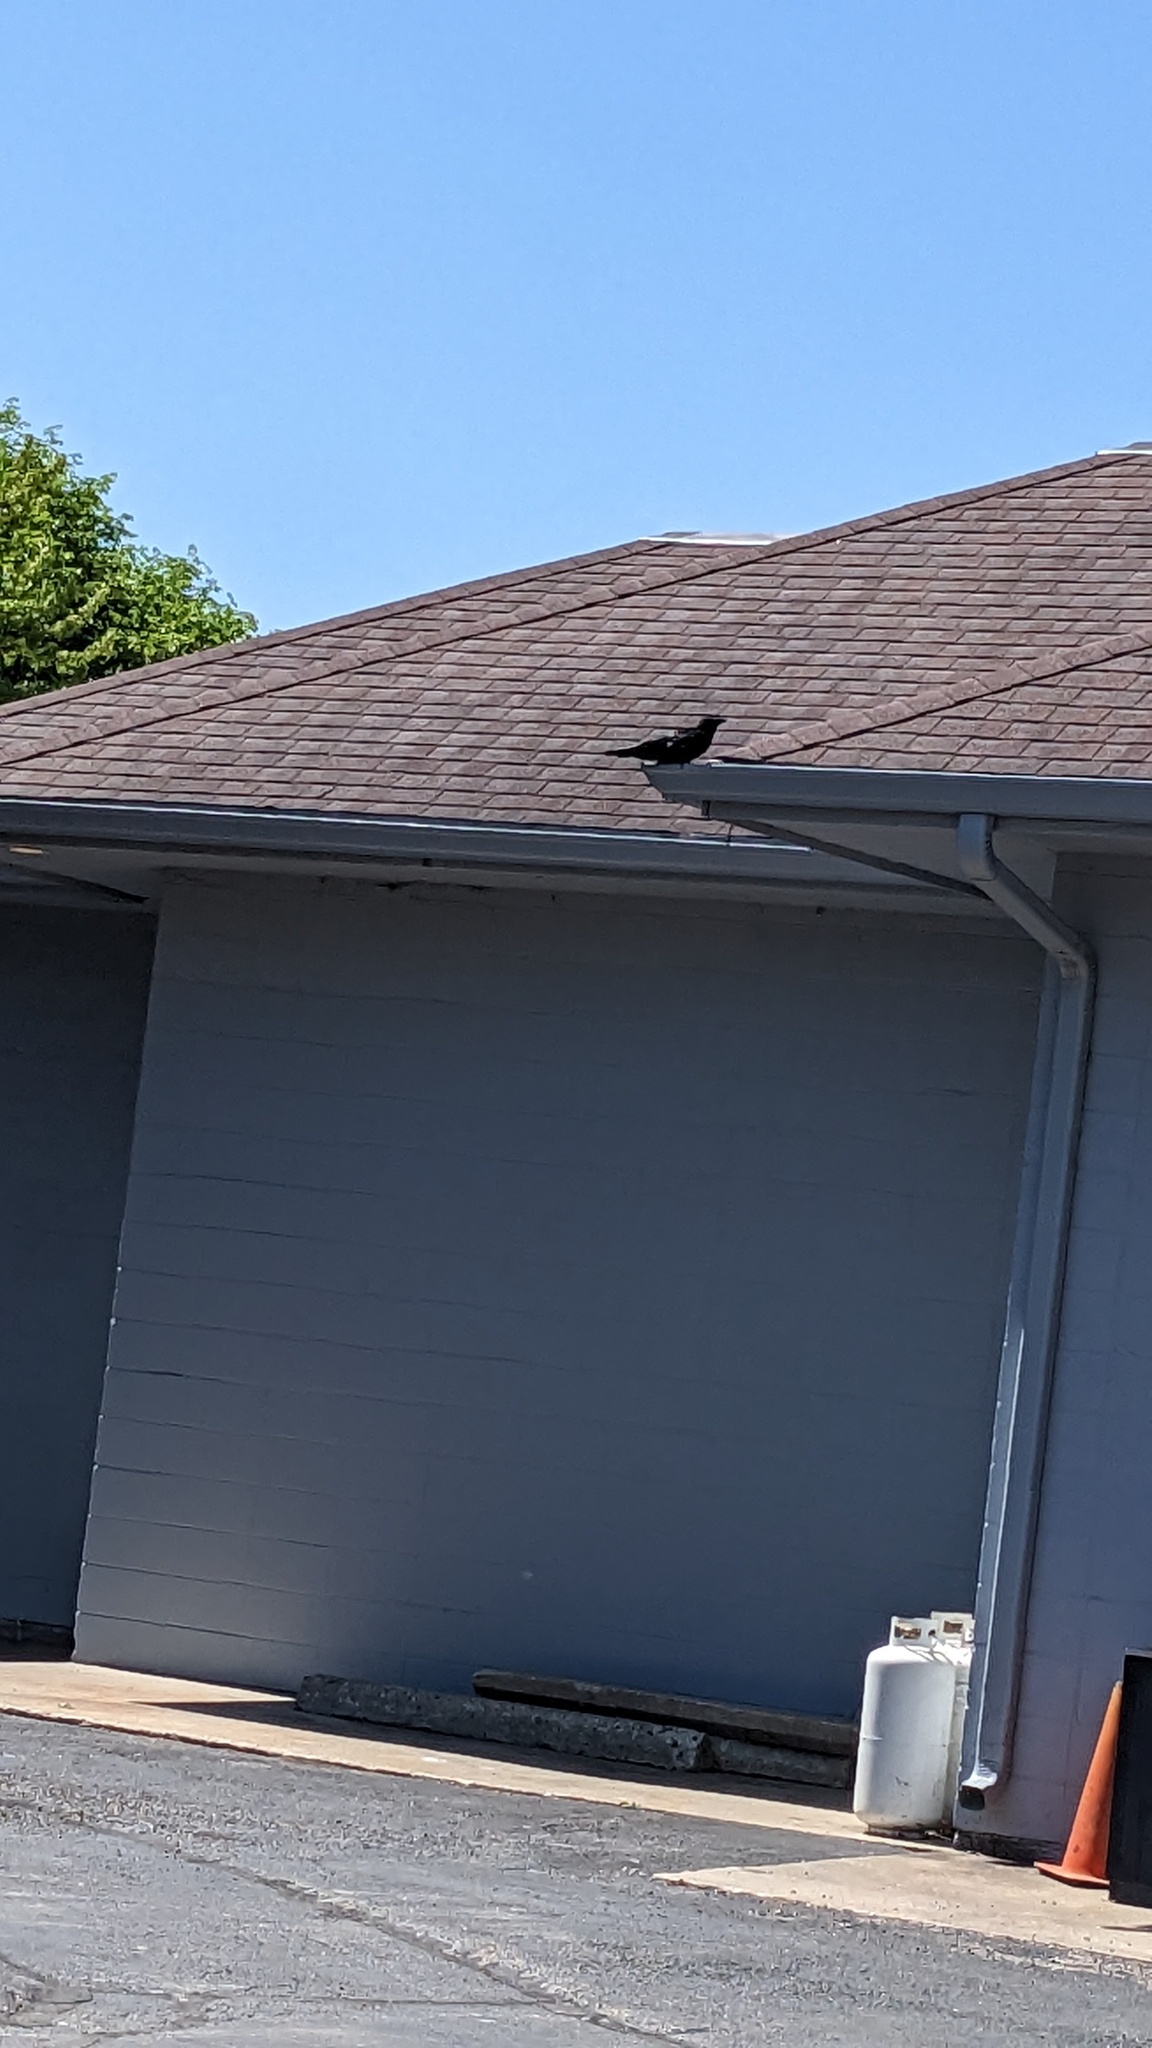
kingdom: Animalia
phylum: Chordata
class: Aves
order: Passeriformes
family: Corvidae
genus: Corvus
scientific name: Corvus brachyrhynchos
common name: American crow
